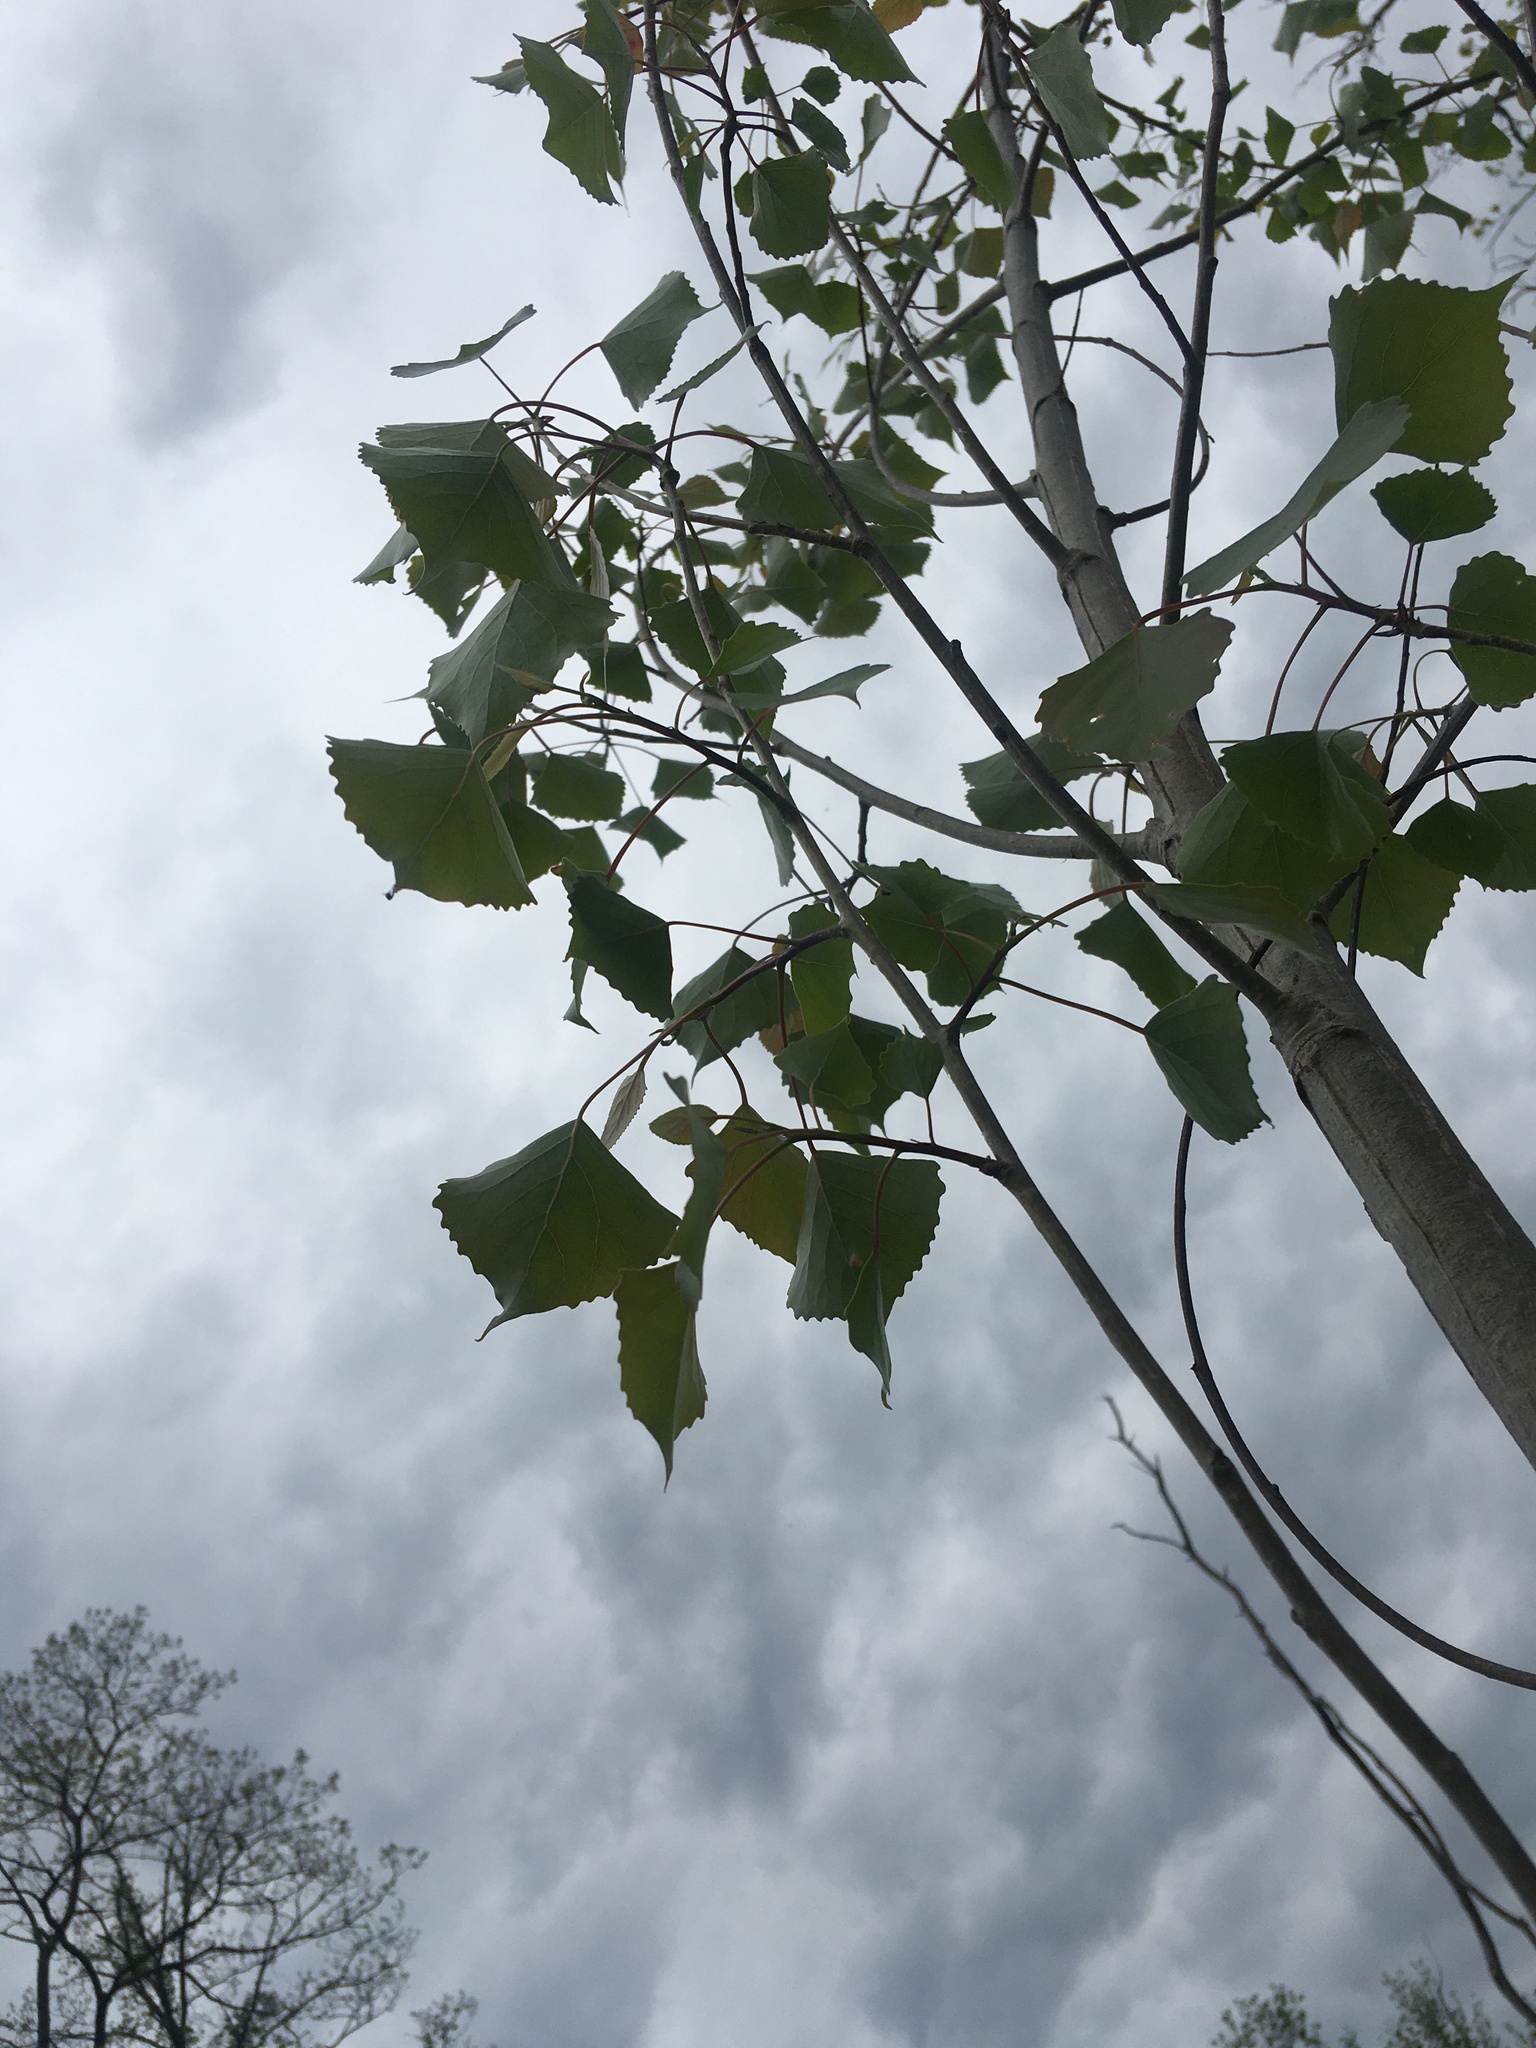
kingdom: Plantae
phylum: Tracheophyta
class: Magnoliopsida
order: Malpighiales
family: Salicaceae
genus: Populus
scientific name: Populus deltoides
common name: Eastern cottonwood
